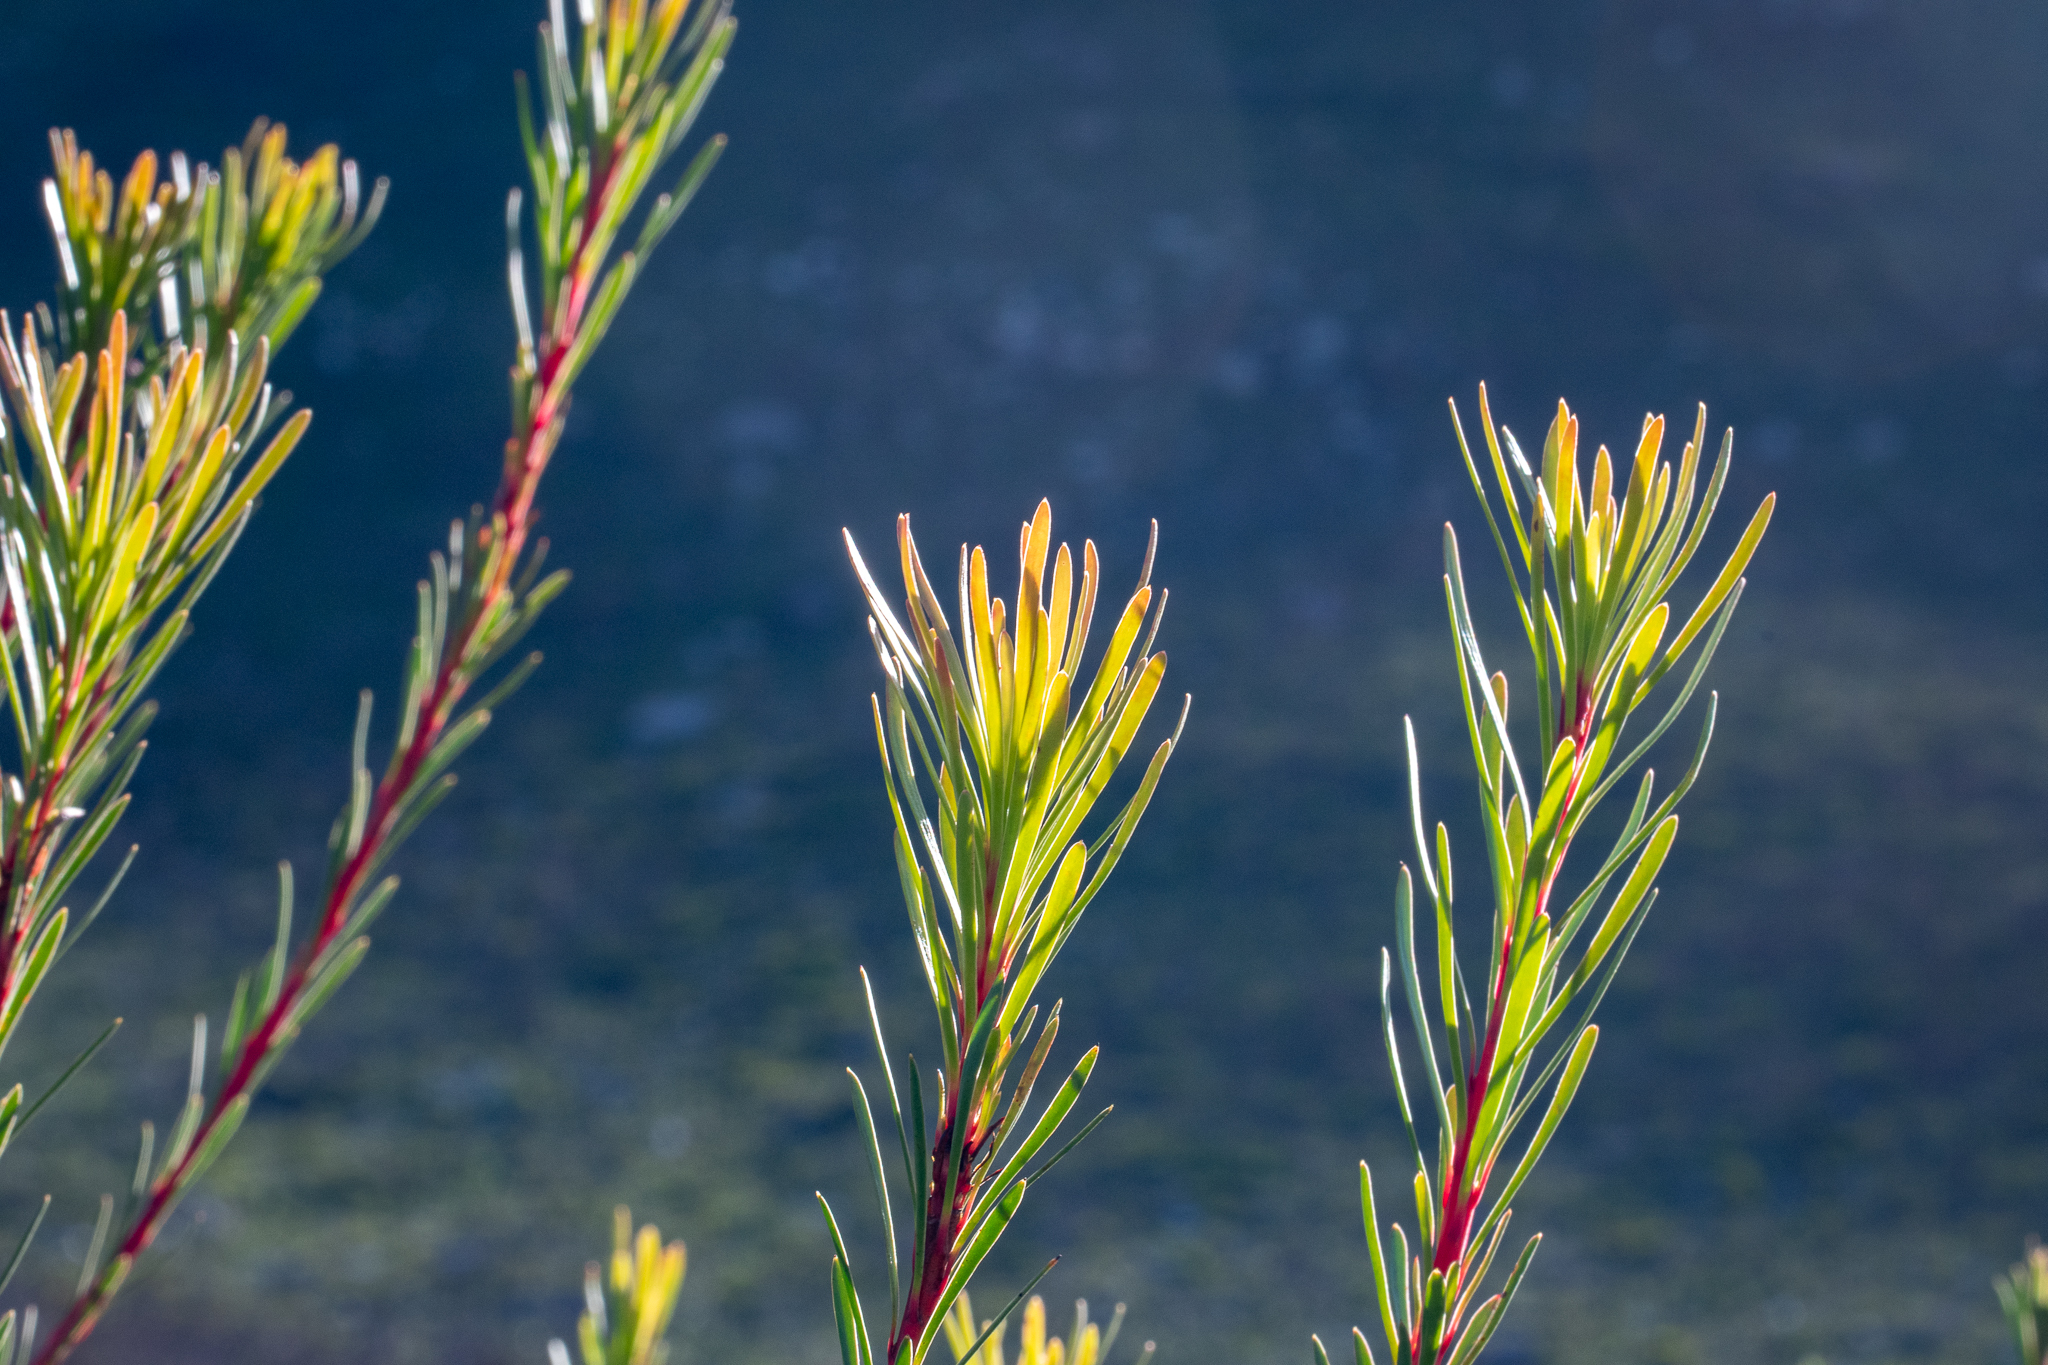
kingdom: Plantae
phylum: Tracheophyta
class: Magnoliopsida
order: Proteales
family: Proteaceae
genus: Aulax
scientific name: Aulax
